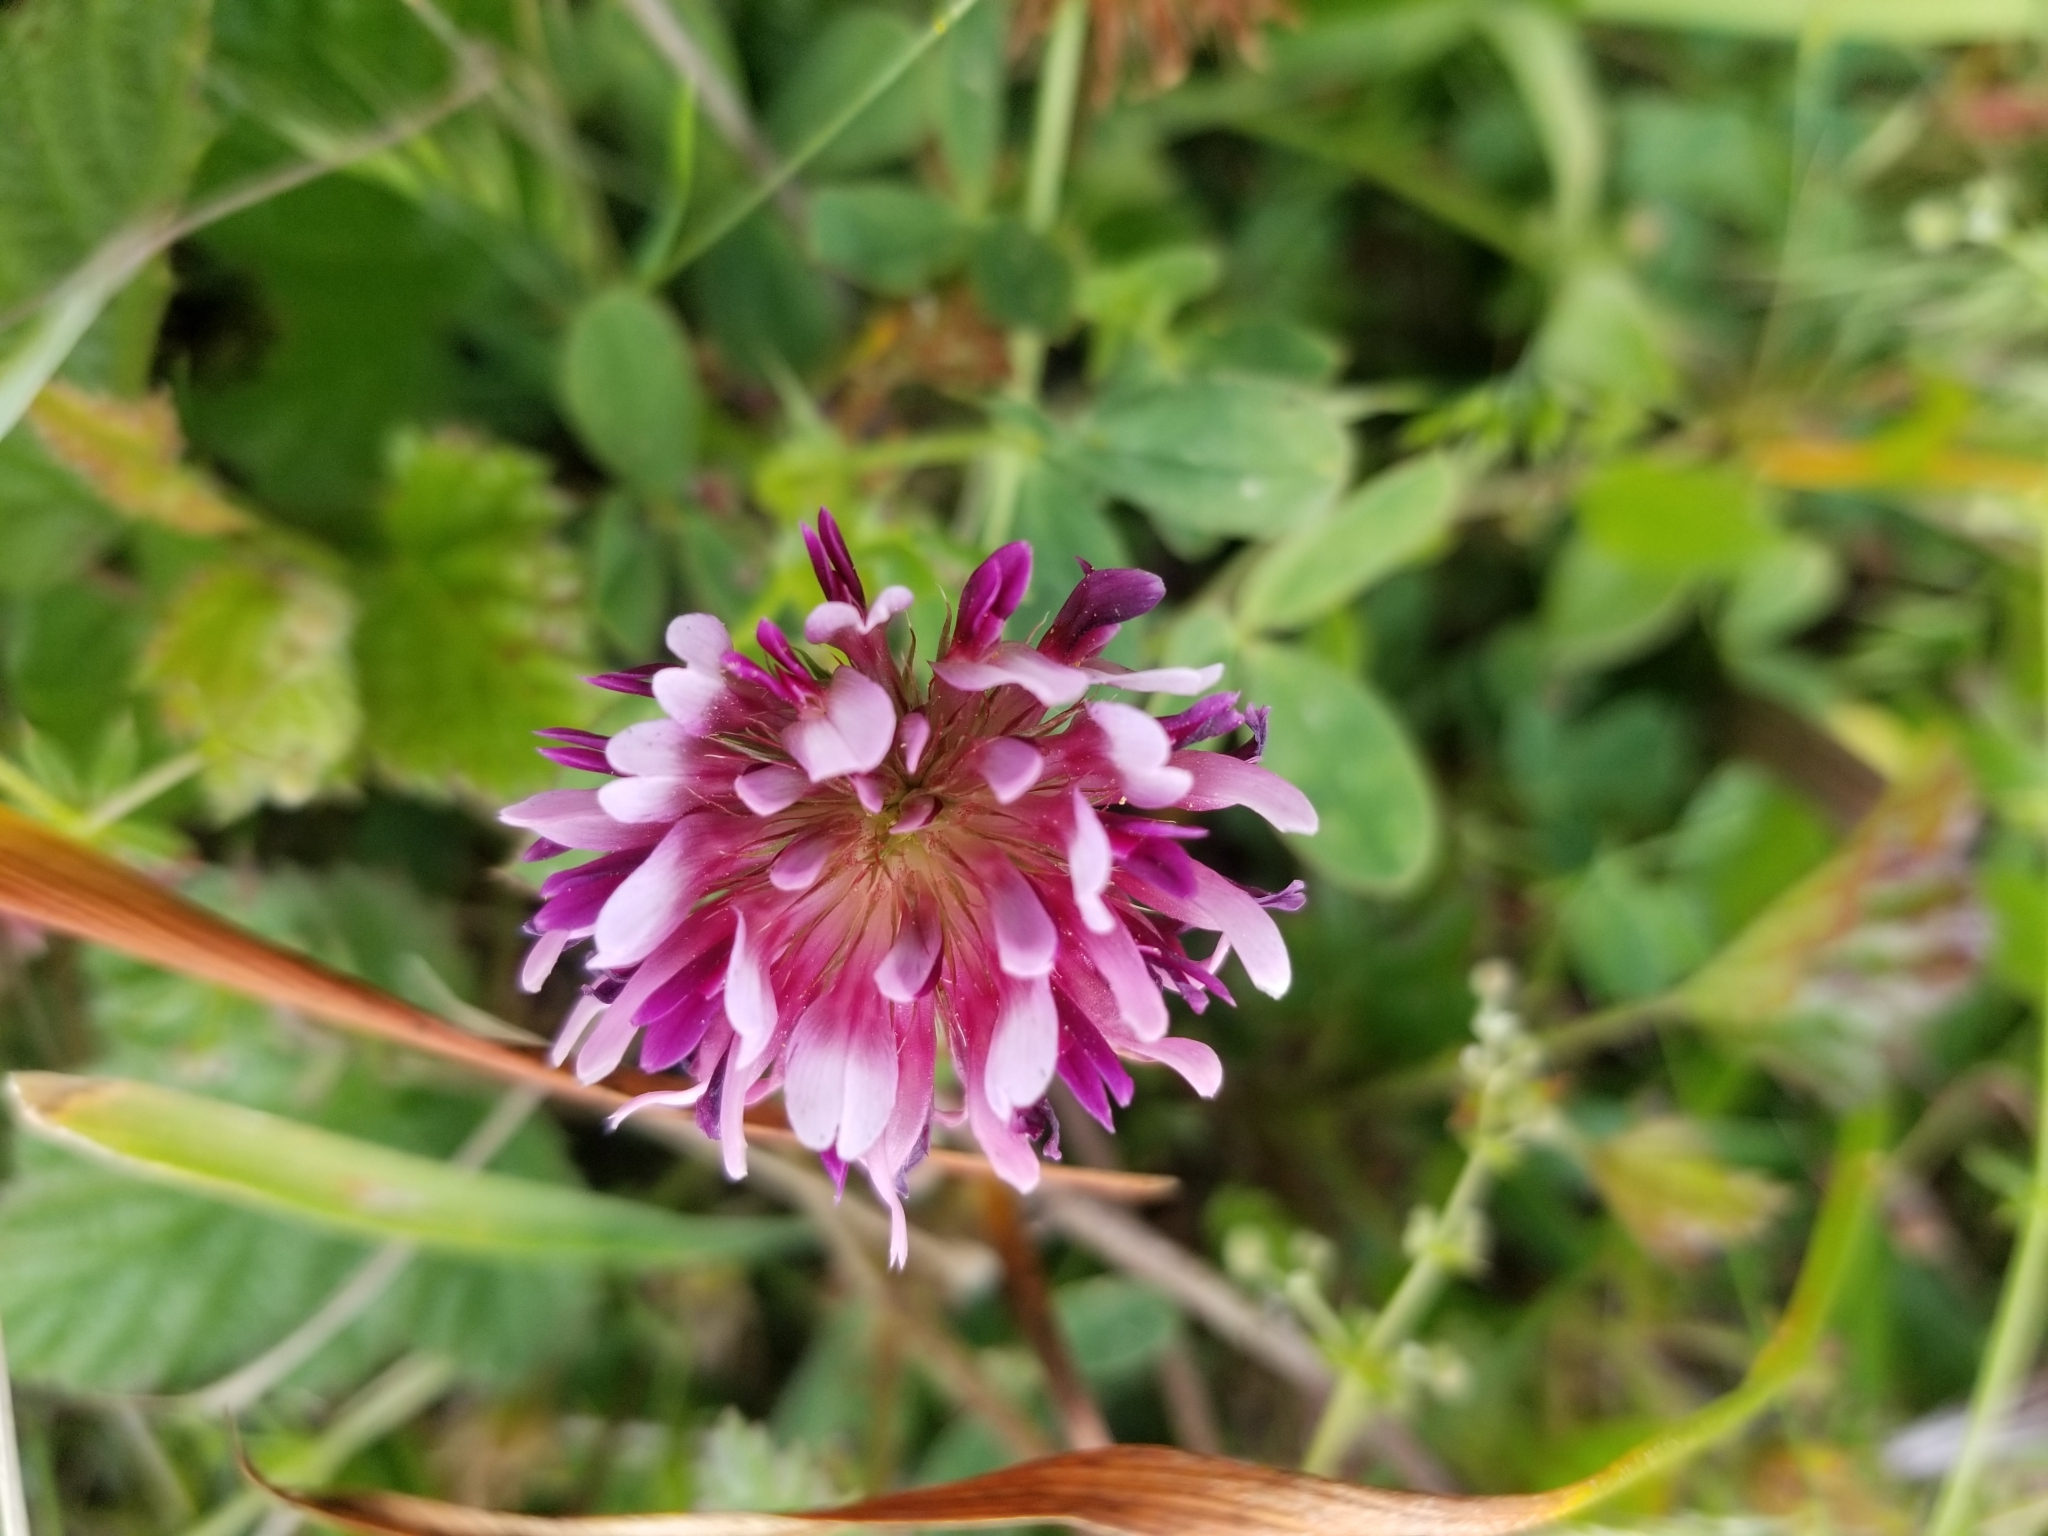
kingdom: Plantae
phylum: Tracheophyta
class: Magnoliopsida
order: Fabales
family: Fabaceae
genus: Trifolium
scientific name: Trifolium wormskioldii
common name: Springbank clover
